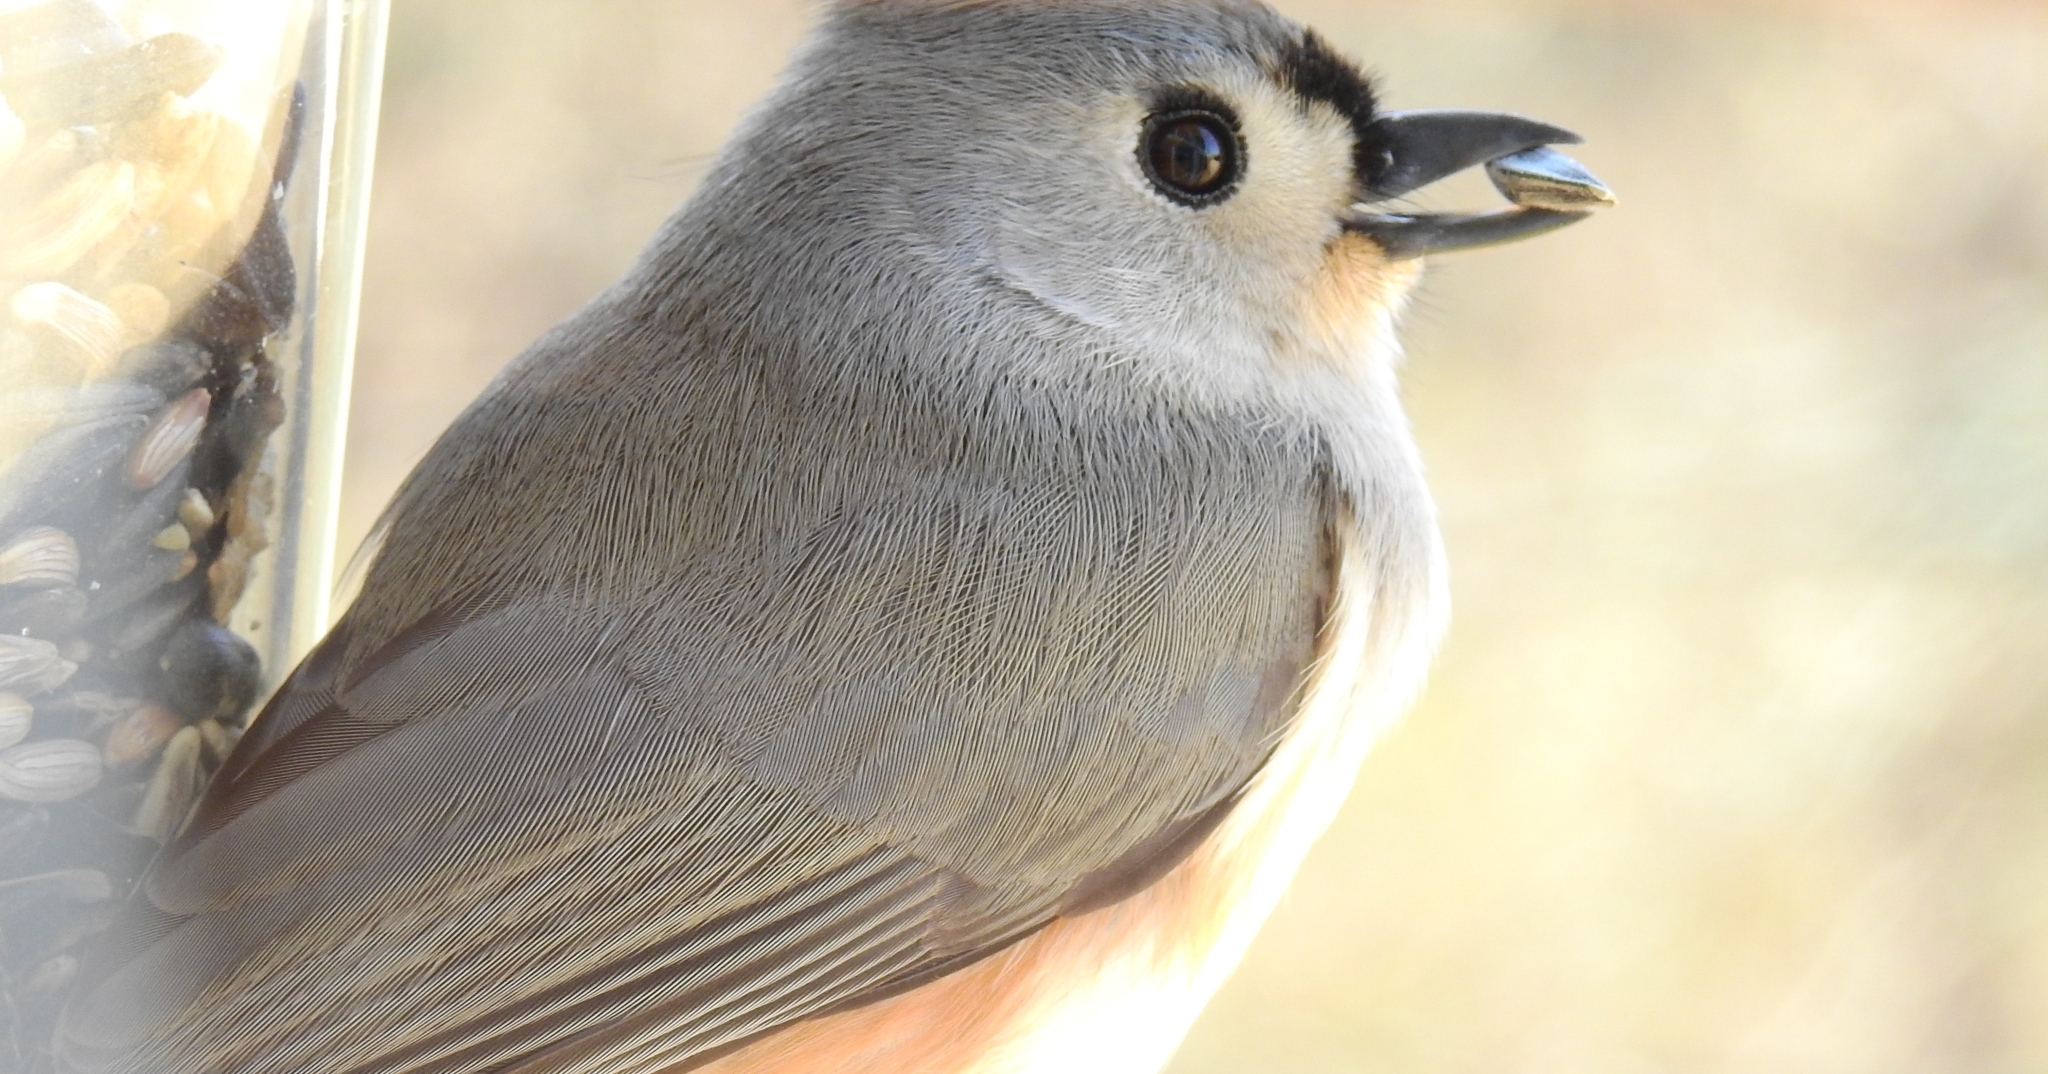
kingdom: Animalia
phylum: Chordata
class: Aves
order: Passeriformes
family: Paridae
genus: Baeolophus
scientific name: Baeolophus bicolor
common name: Tufted titmouse
